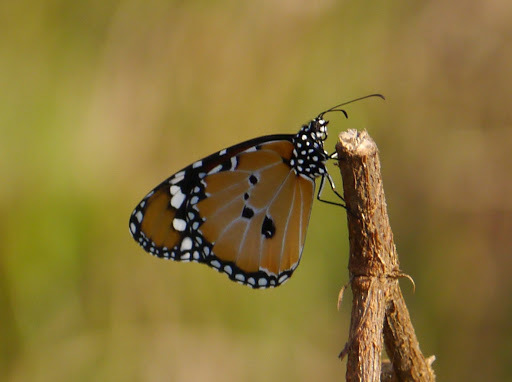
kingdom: Animalia
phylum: Arthropoda
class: Insecta
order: Lepidoptera
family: Nymphalidae
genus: Danaus
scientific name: Danaus chrysippus
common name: Plain tiger
